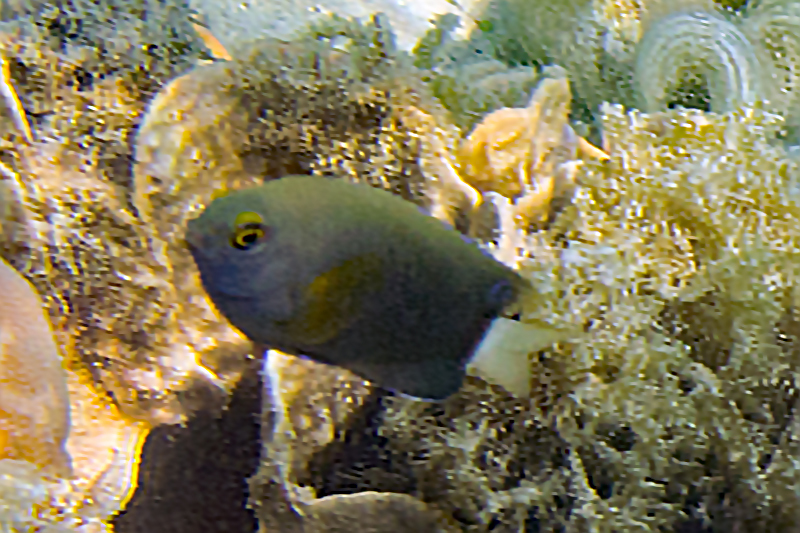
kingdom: Animalia
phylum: Chordata
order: Perciformes
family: Pomacentridae
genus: Pomacentrus
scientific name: Pomacentrus chrysurus
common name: White-tail damsel
